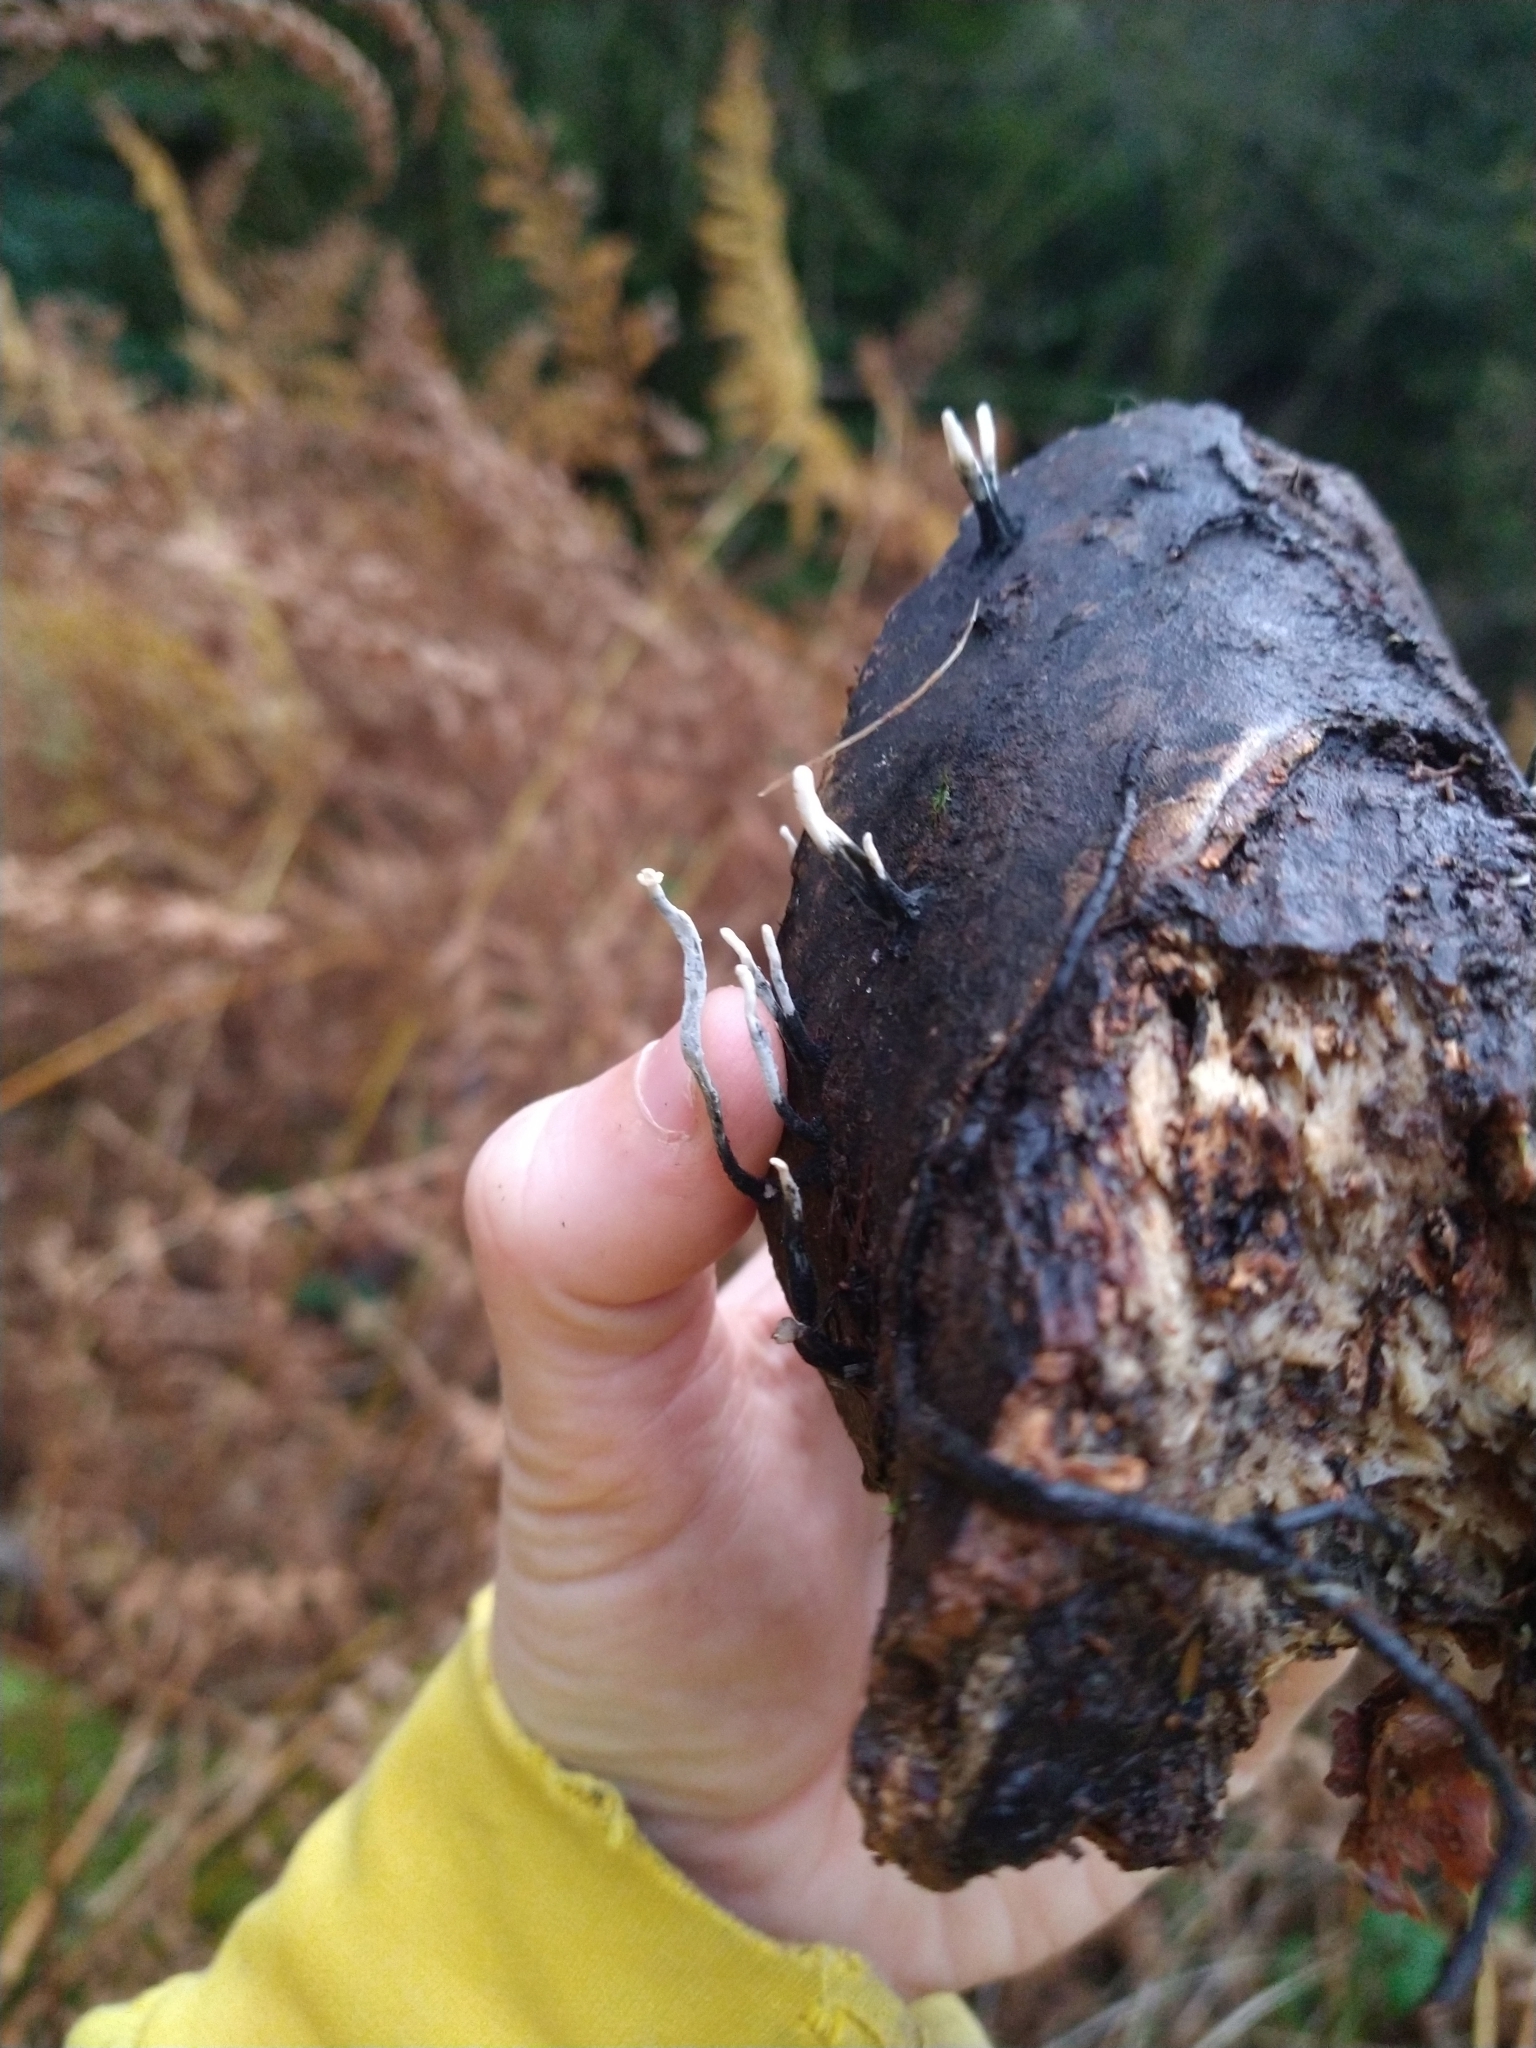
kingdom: Fungi
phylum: Ascomycota
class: Sordariomycetes
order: Xylariales
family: Xylariaceae
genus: Xylaria
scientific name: Xylaria hypoxylon
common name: Candle-snuff fungus
